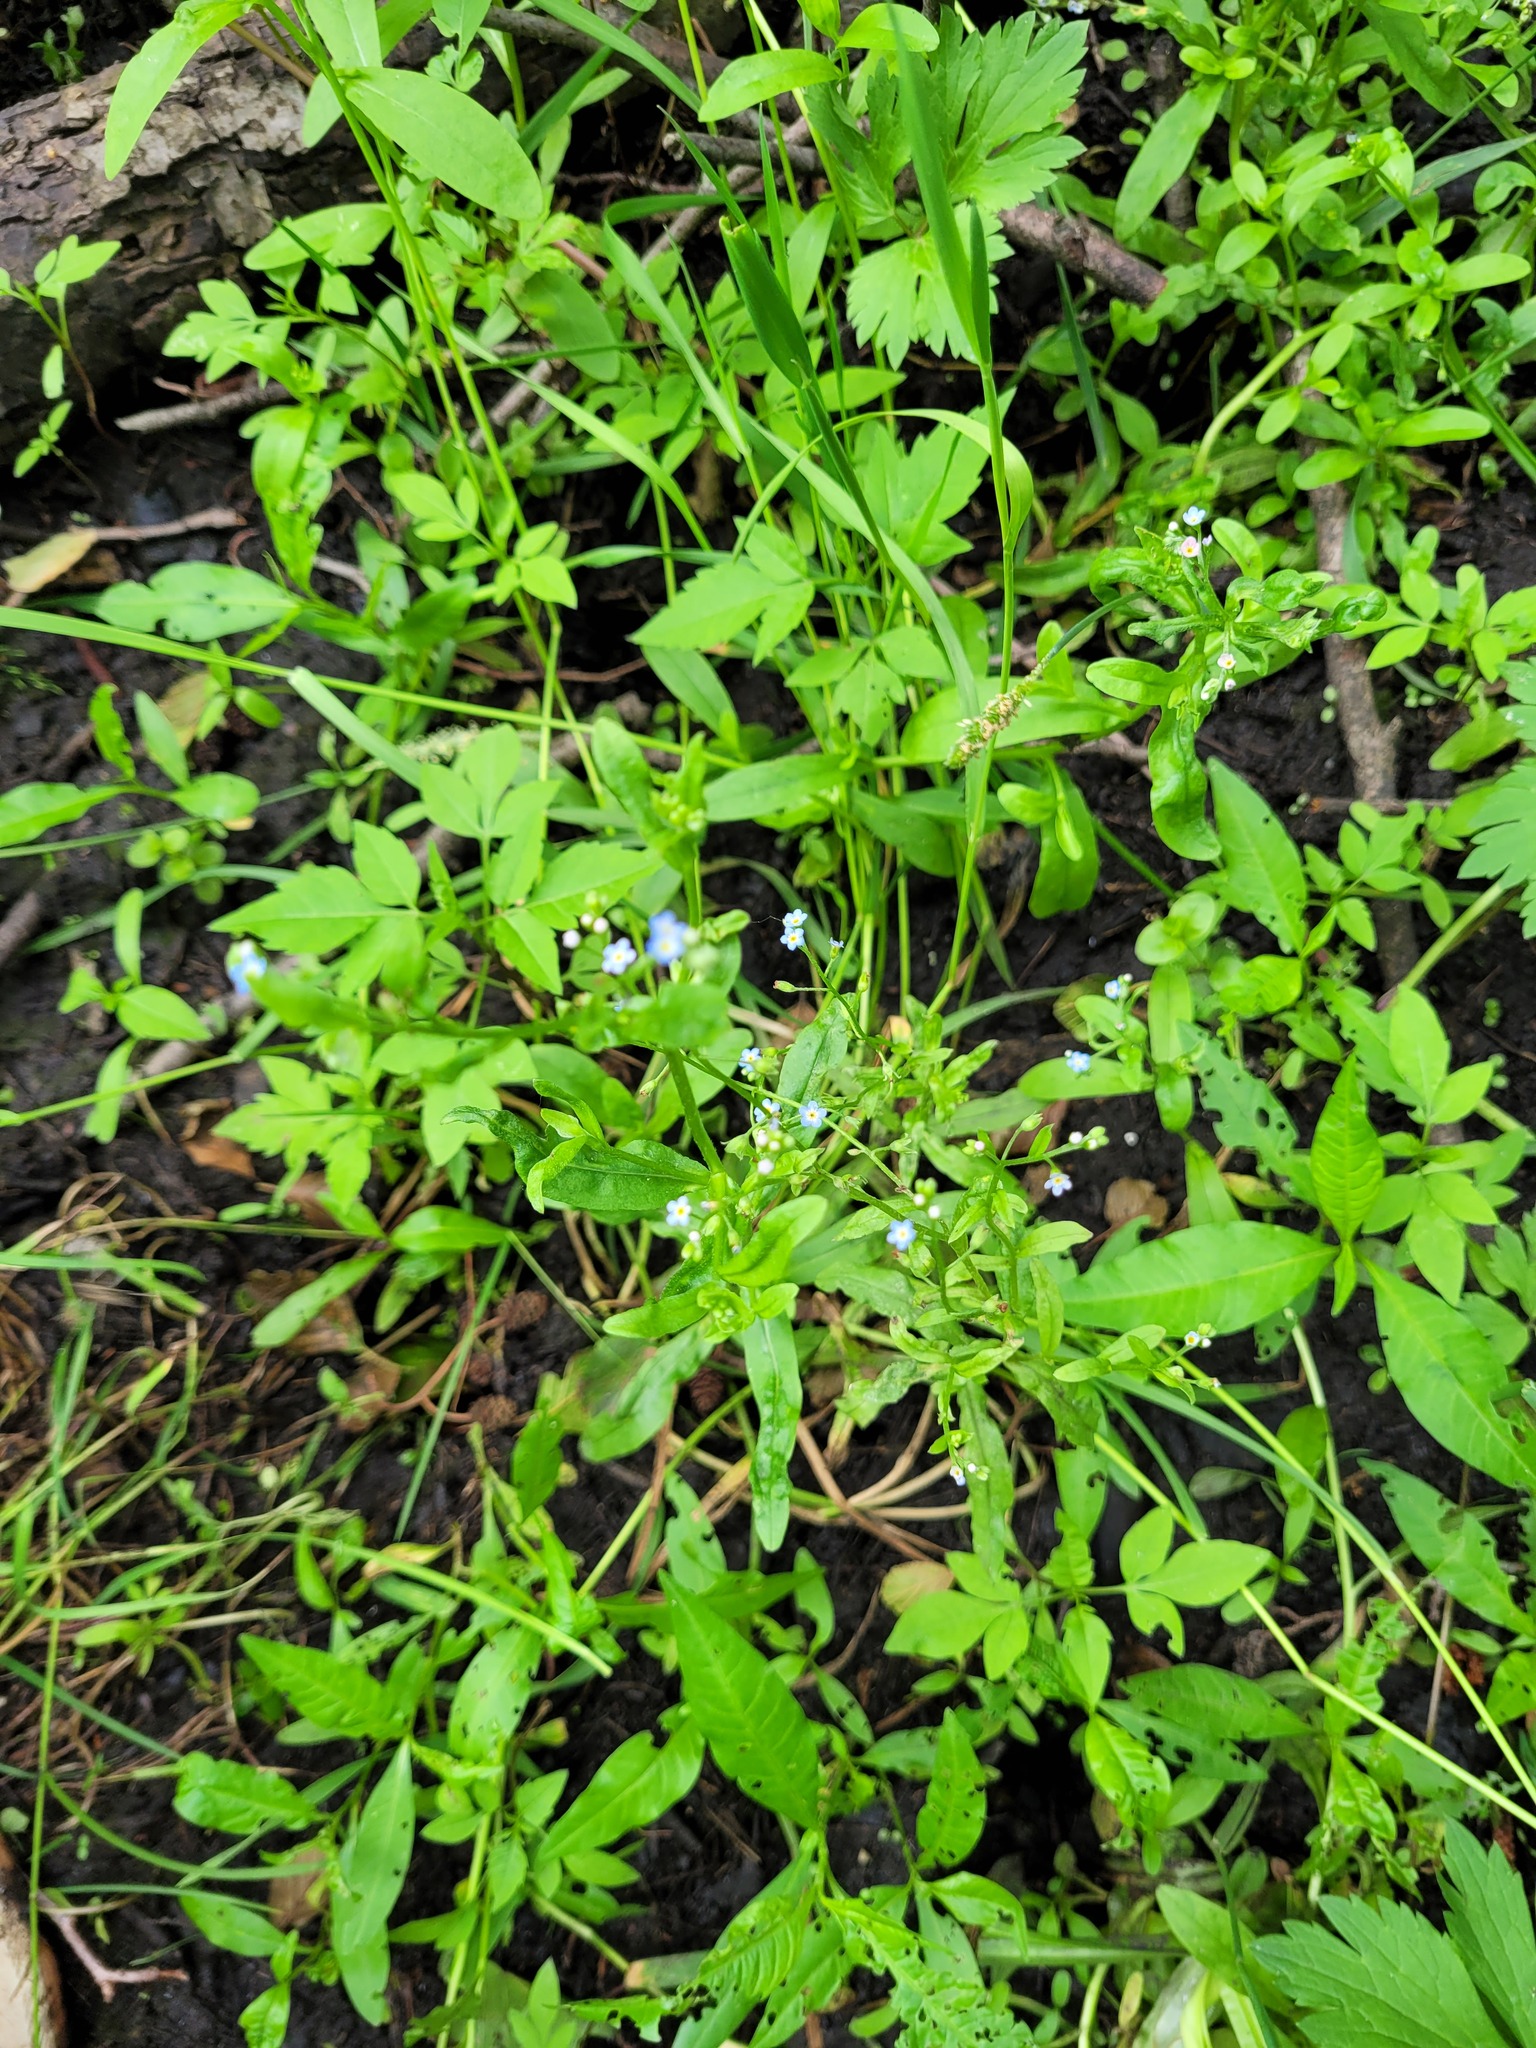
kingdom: Plantae
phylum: Tracheophyta
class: Magnoliopsida
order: Boraginales
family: Boraginaceae
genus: Myosotis
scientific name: Myosotis laxa
